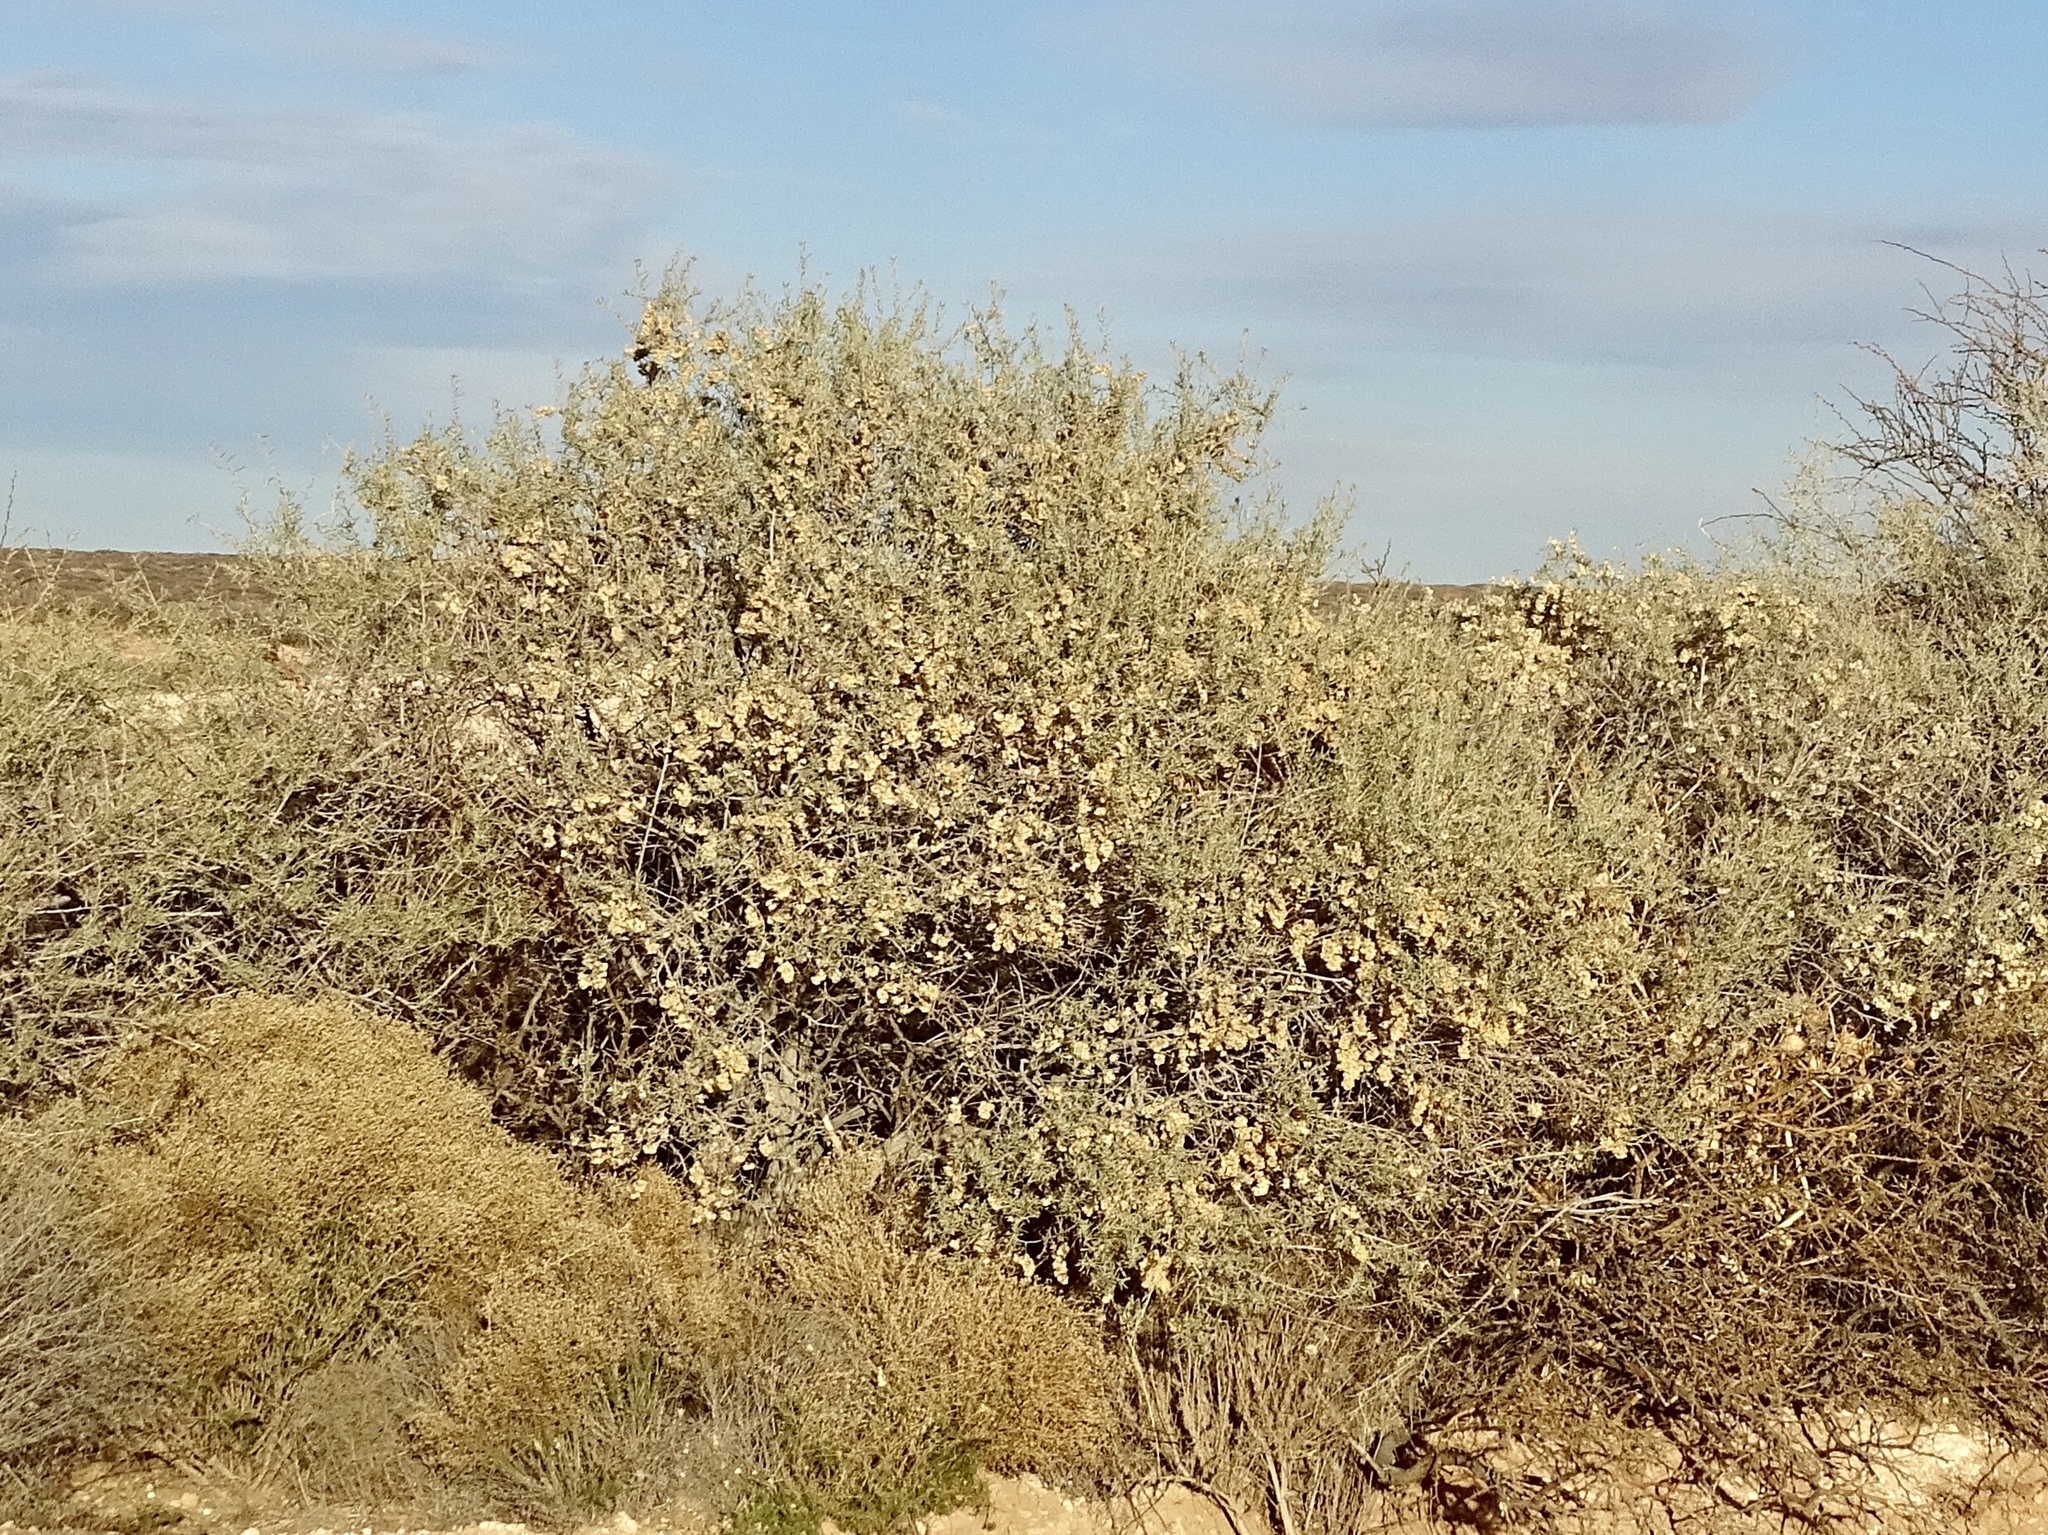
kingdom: Plantae
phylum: Tracheophyta
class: Magnoliopsida
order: Caryophyllales
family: Amaranthaceae
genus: Atriplex
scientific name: Atriplex canescens
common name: Four-wing saltbush
